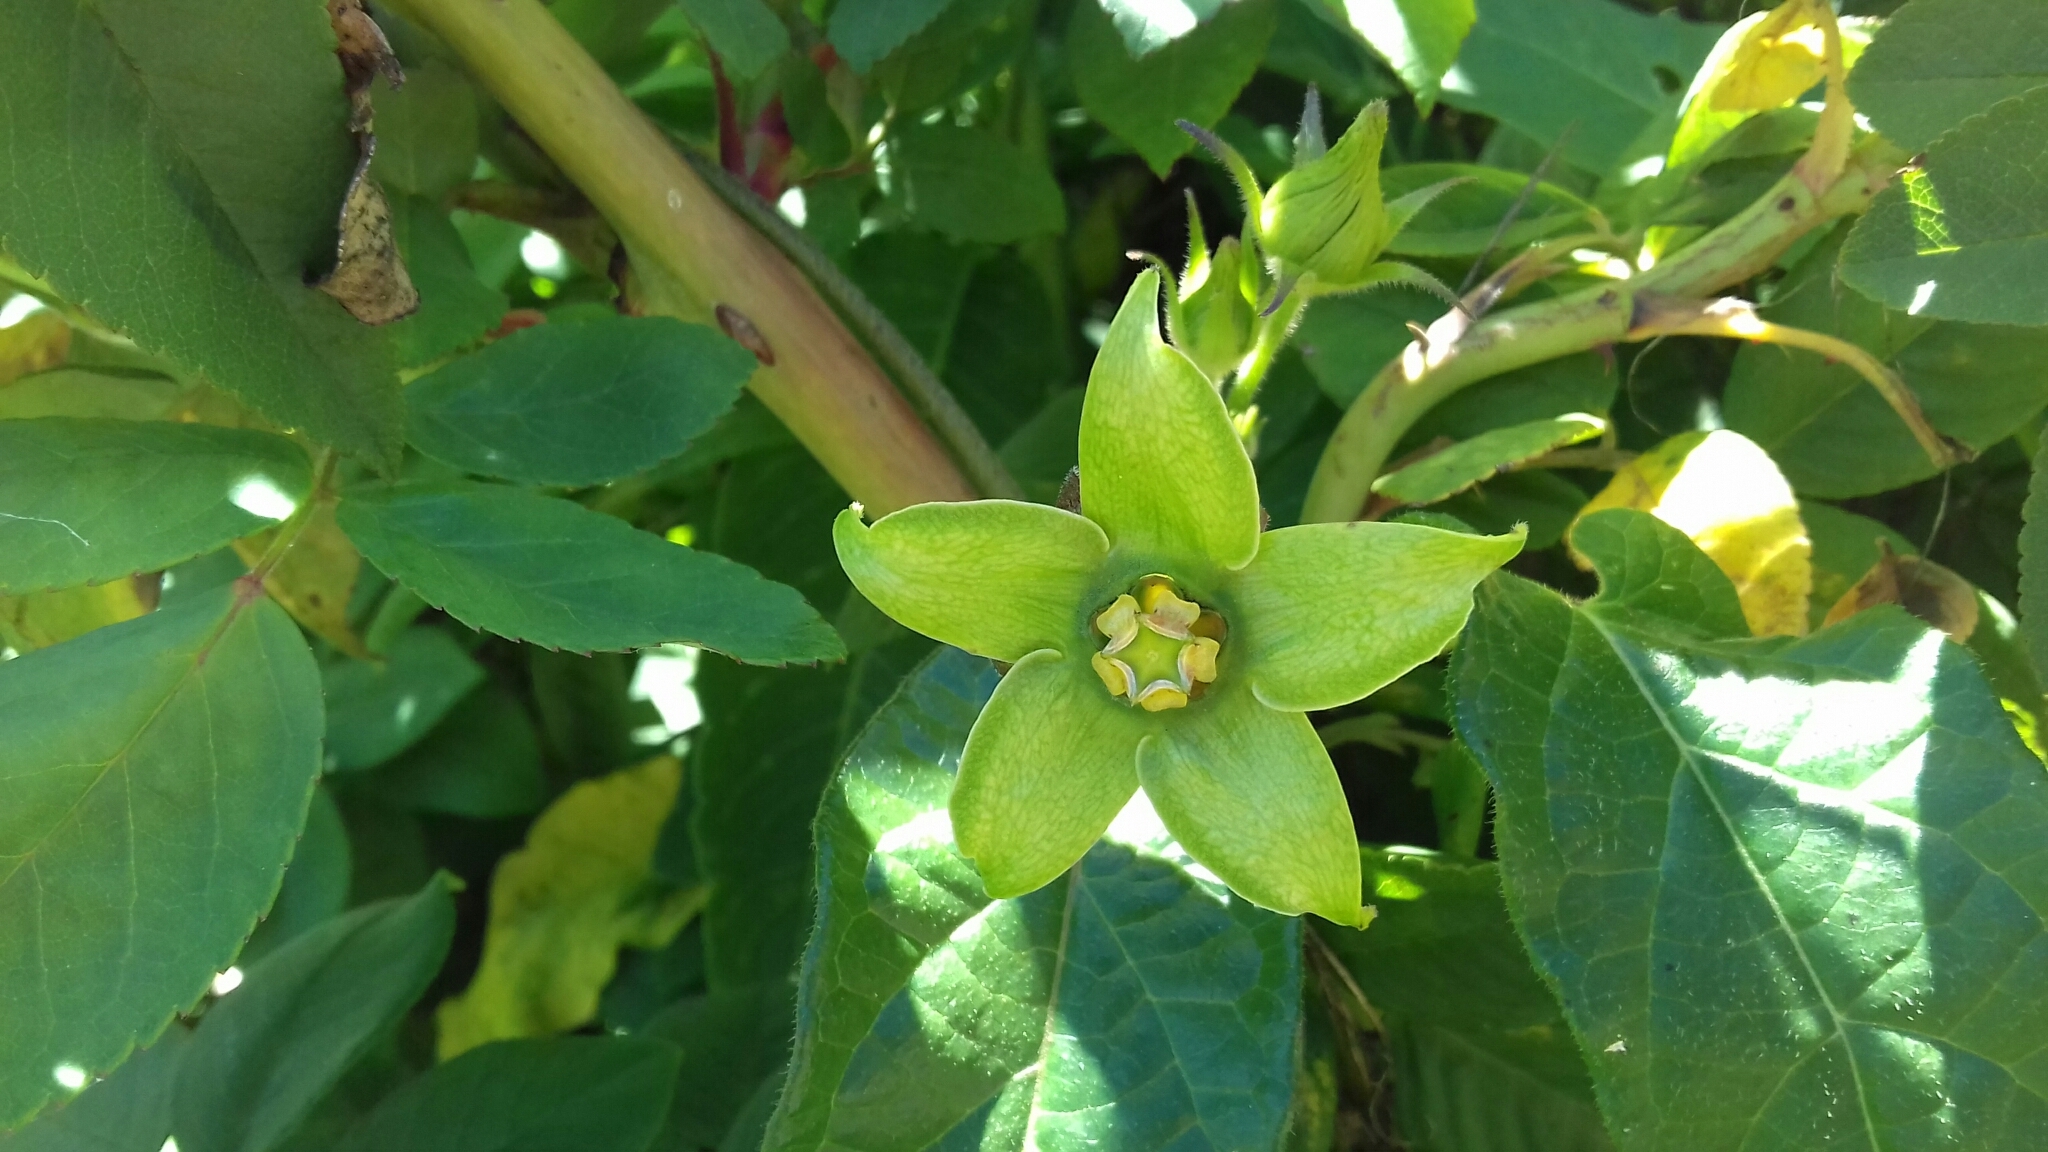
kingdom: Plantae
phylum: Tracheophyta
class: Magnoliopsida
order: Gentianales
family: Apocynaceae
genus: Gonolobus
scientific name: Gonolobus uniflorus
